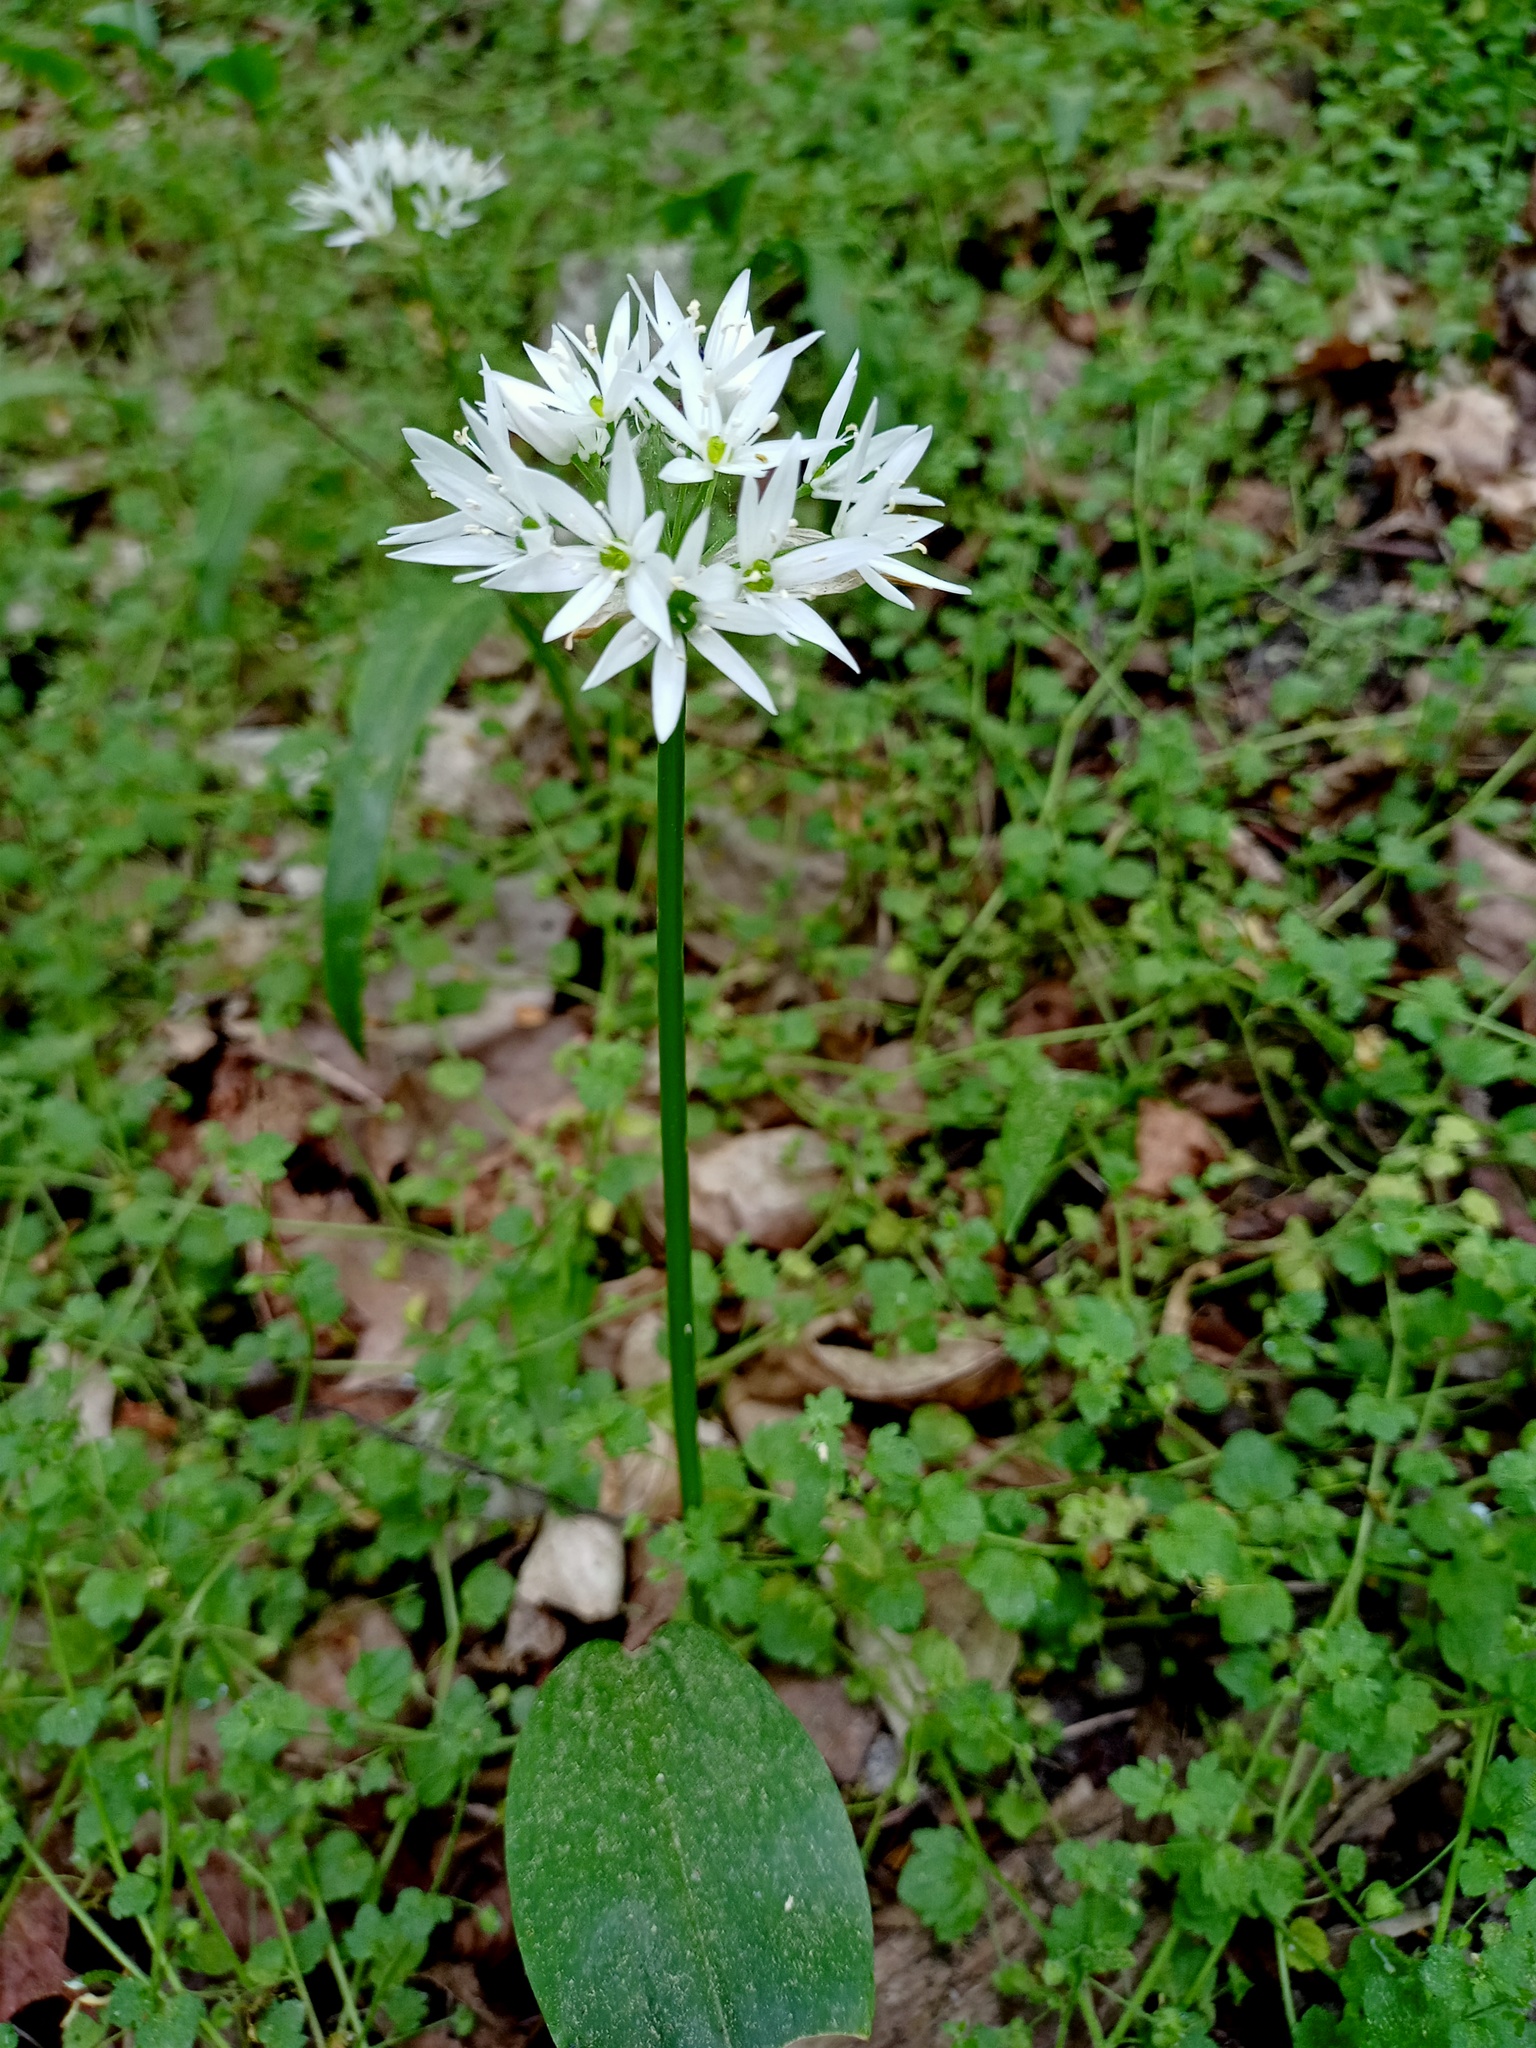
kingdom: Plantae
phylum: Tracheophyta
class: Liliopsida
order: Asparagales
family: Amaryllidaceae
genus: Allium
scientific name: Allium ursinum
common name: Ramsons
